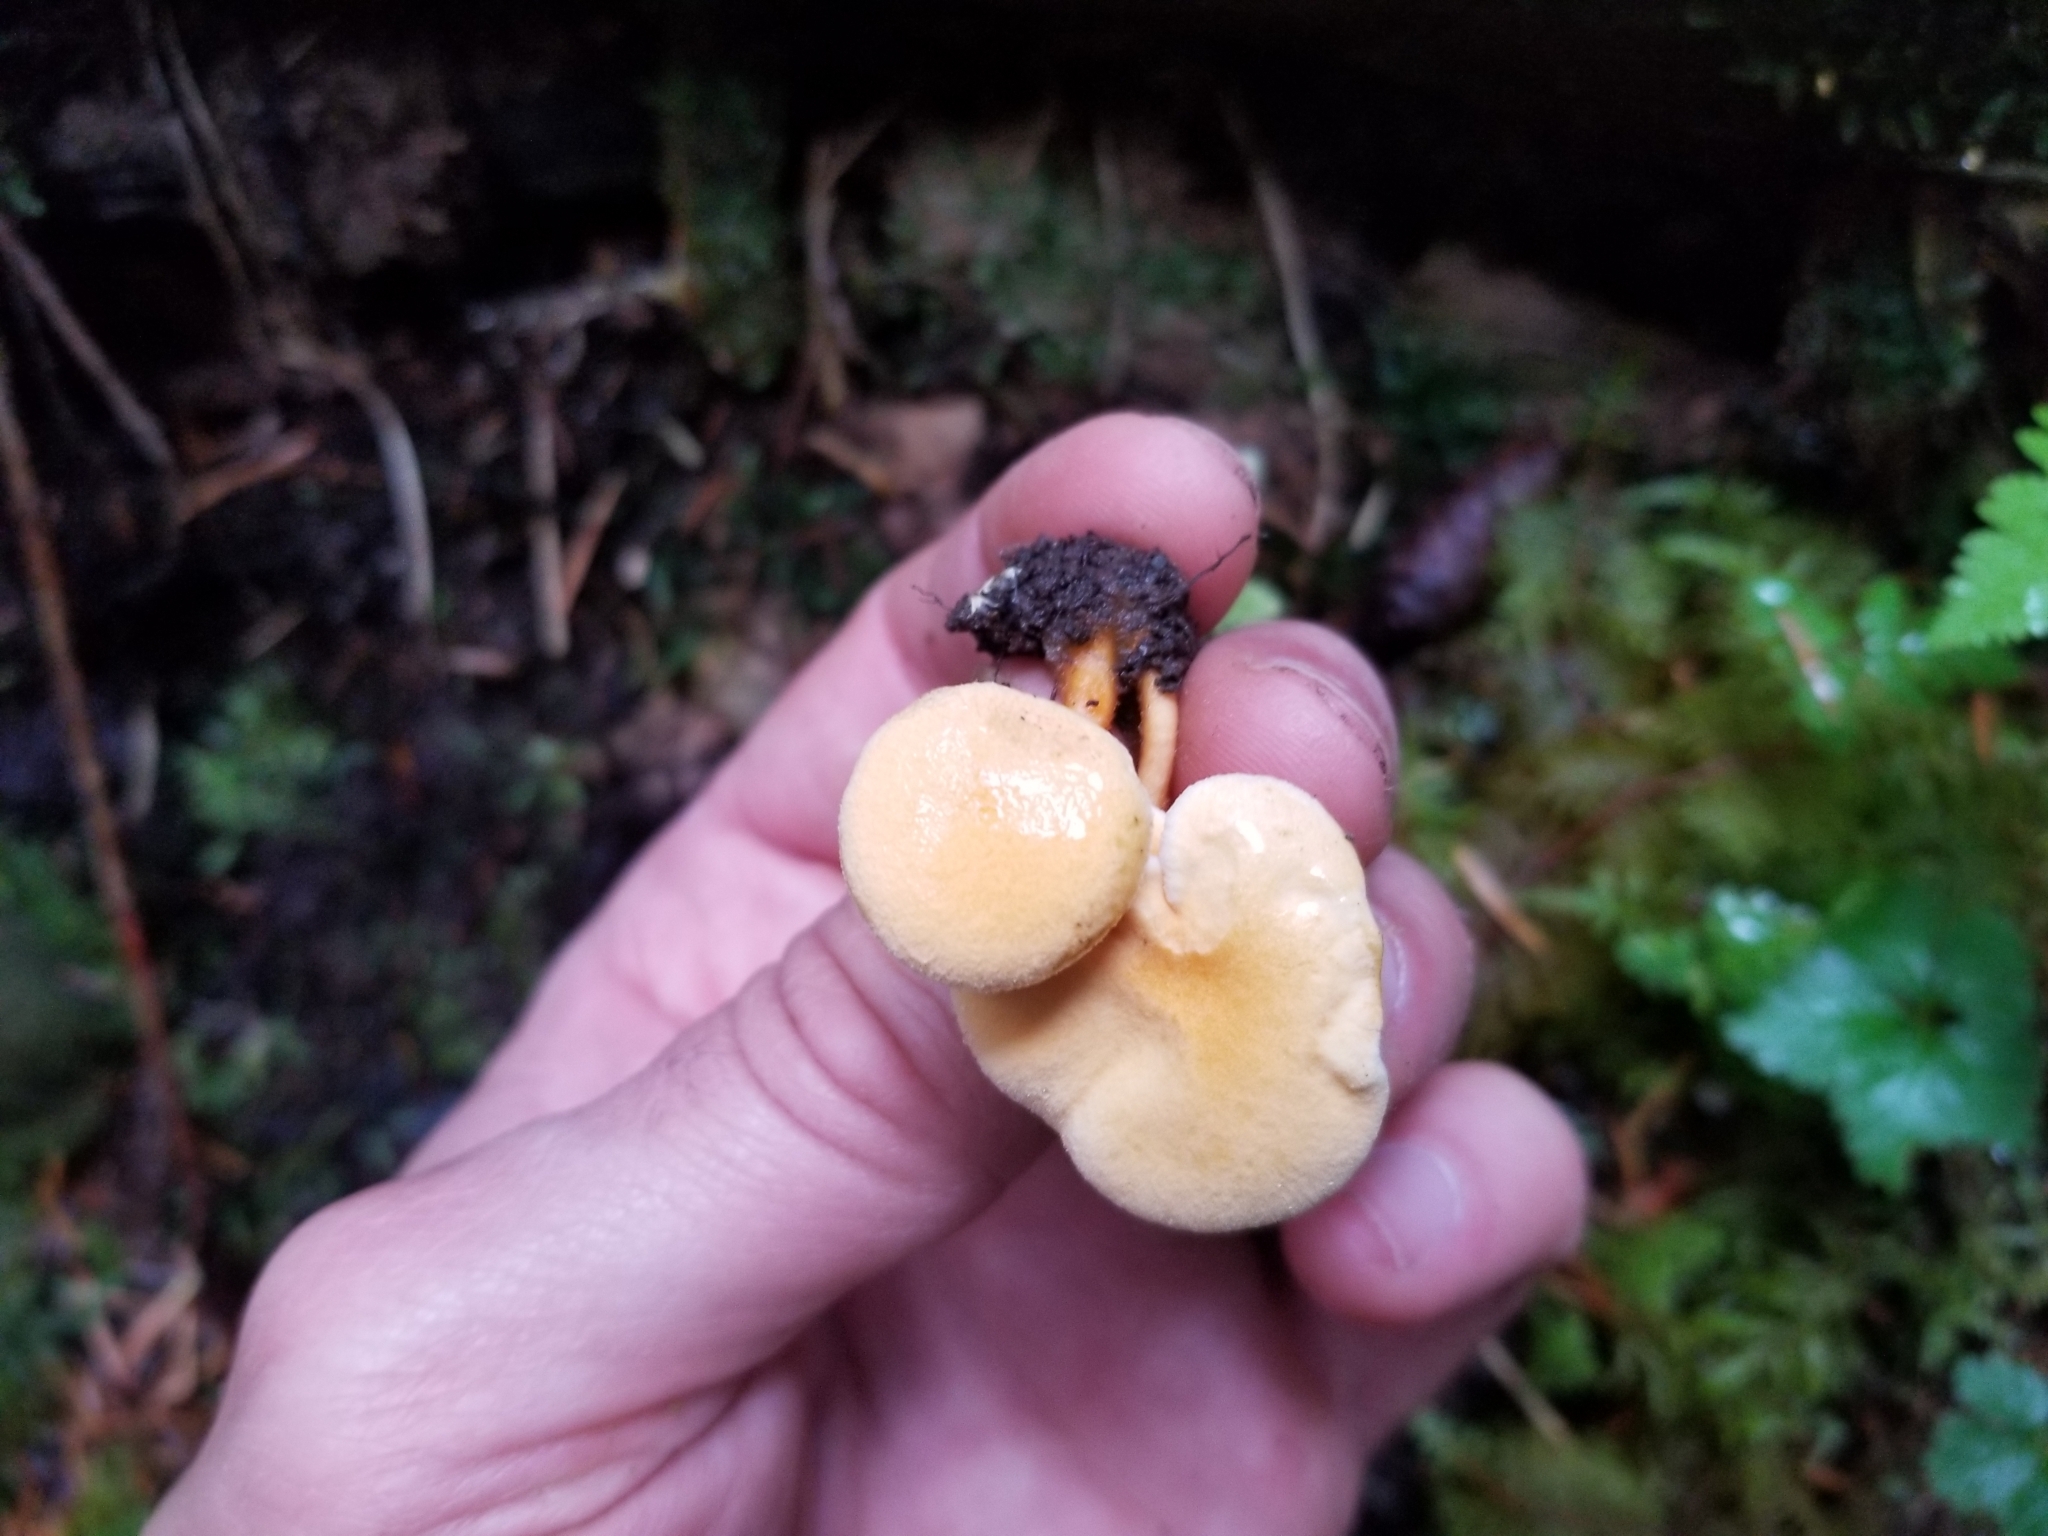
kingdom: Fungi
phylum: Basidiomycota
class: Agaricomycetes
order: Boletales
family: Hygrophoropsidaceae
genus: Hygrophoropsis
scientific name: Hygrophoropsis aurantiaca
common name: False chanterelle
